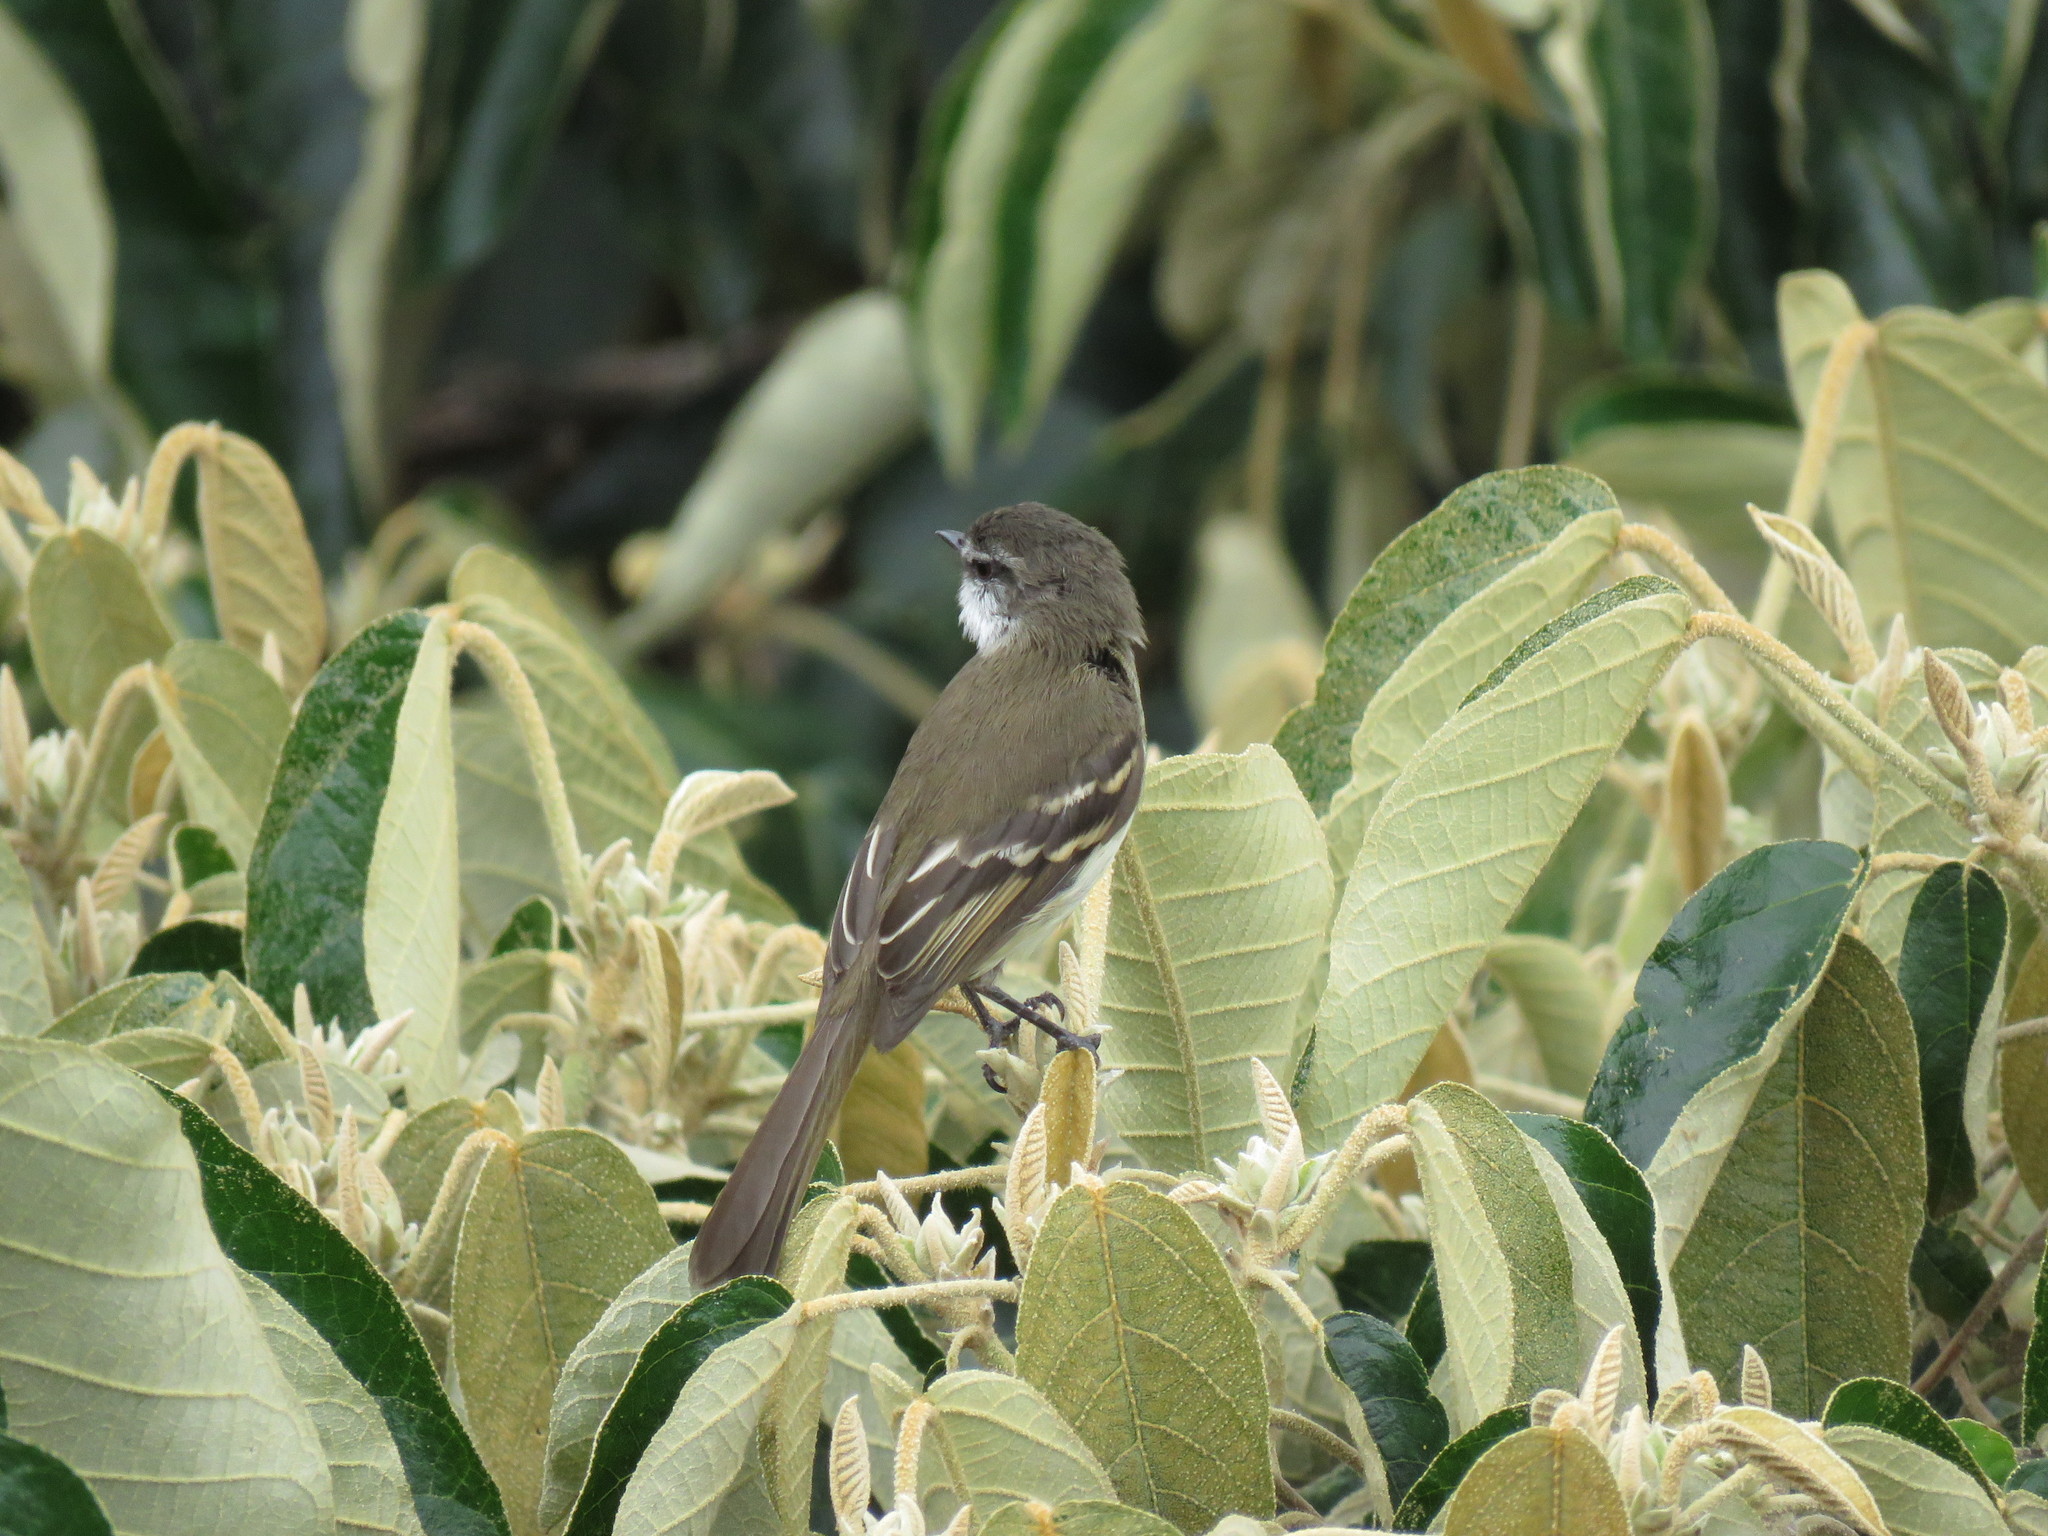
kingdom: Animalia
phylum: Chordata
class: Aves
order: Passeriformes
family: Tyrannidae
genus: Mecocerculus
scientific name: Mecocerculus leucophrys
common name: White-throated tyrannulet
